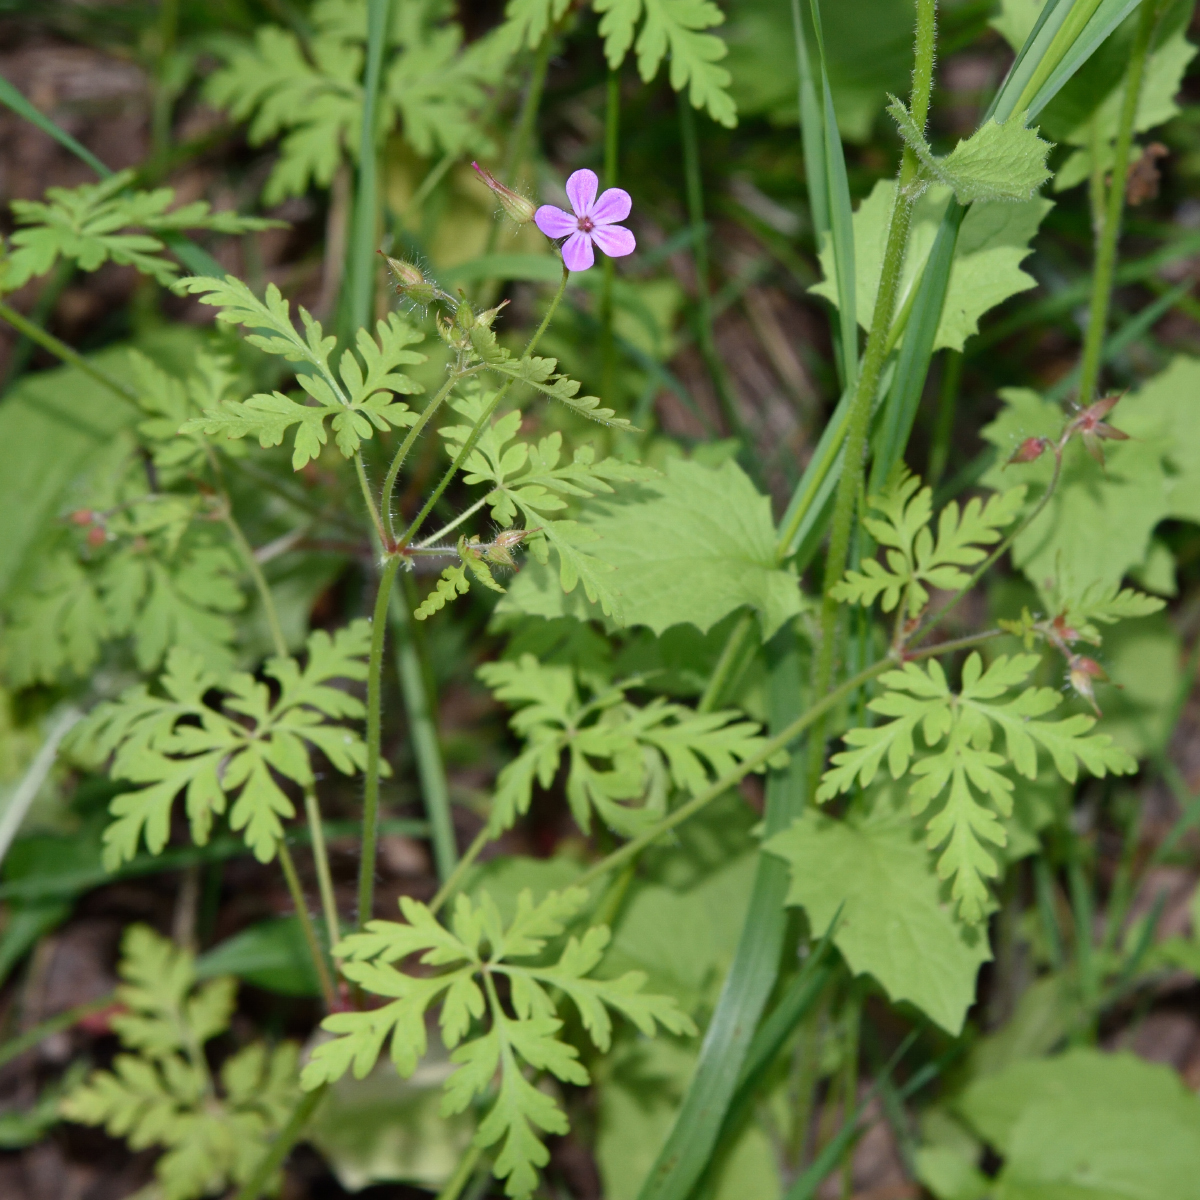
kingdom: Plantae
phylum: Tracheophyta
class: Magnoliopsida
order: Geraniales
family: Geraniaceae
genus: Geranium
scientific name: Geranium robertianum
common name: Herb-robert
